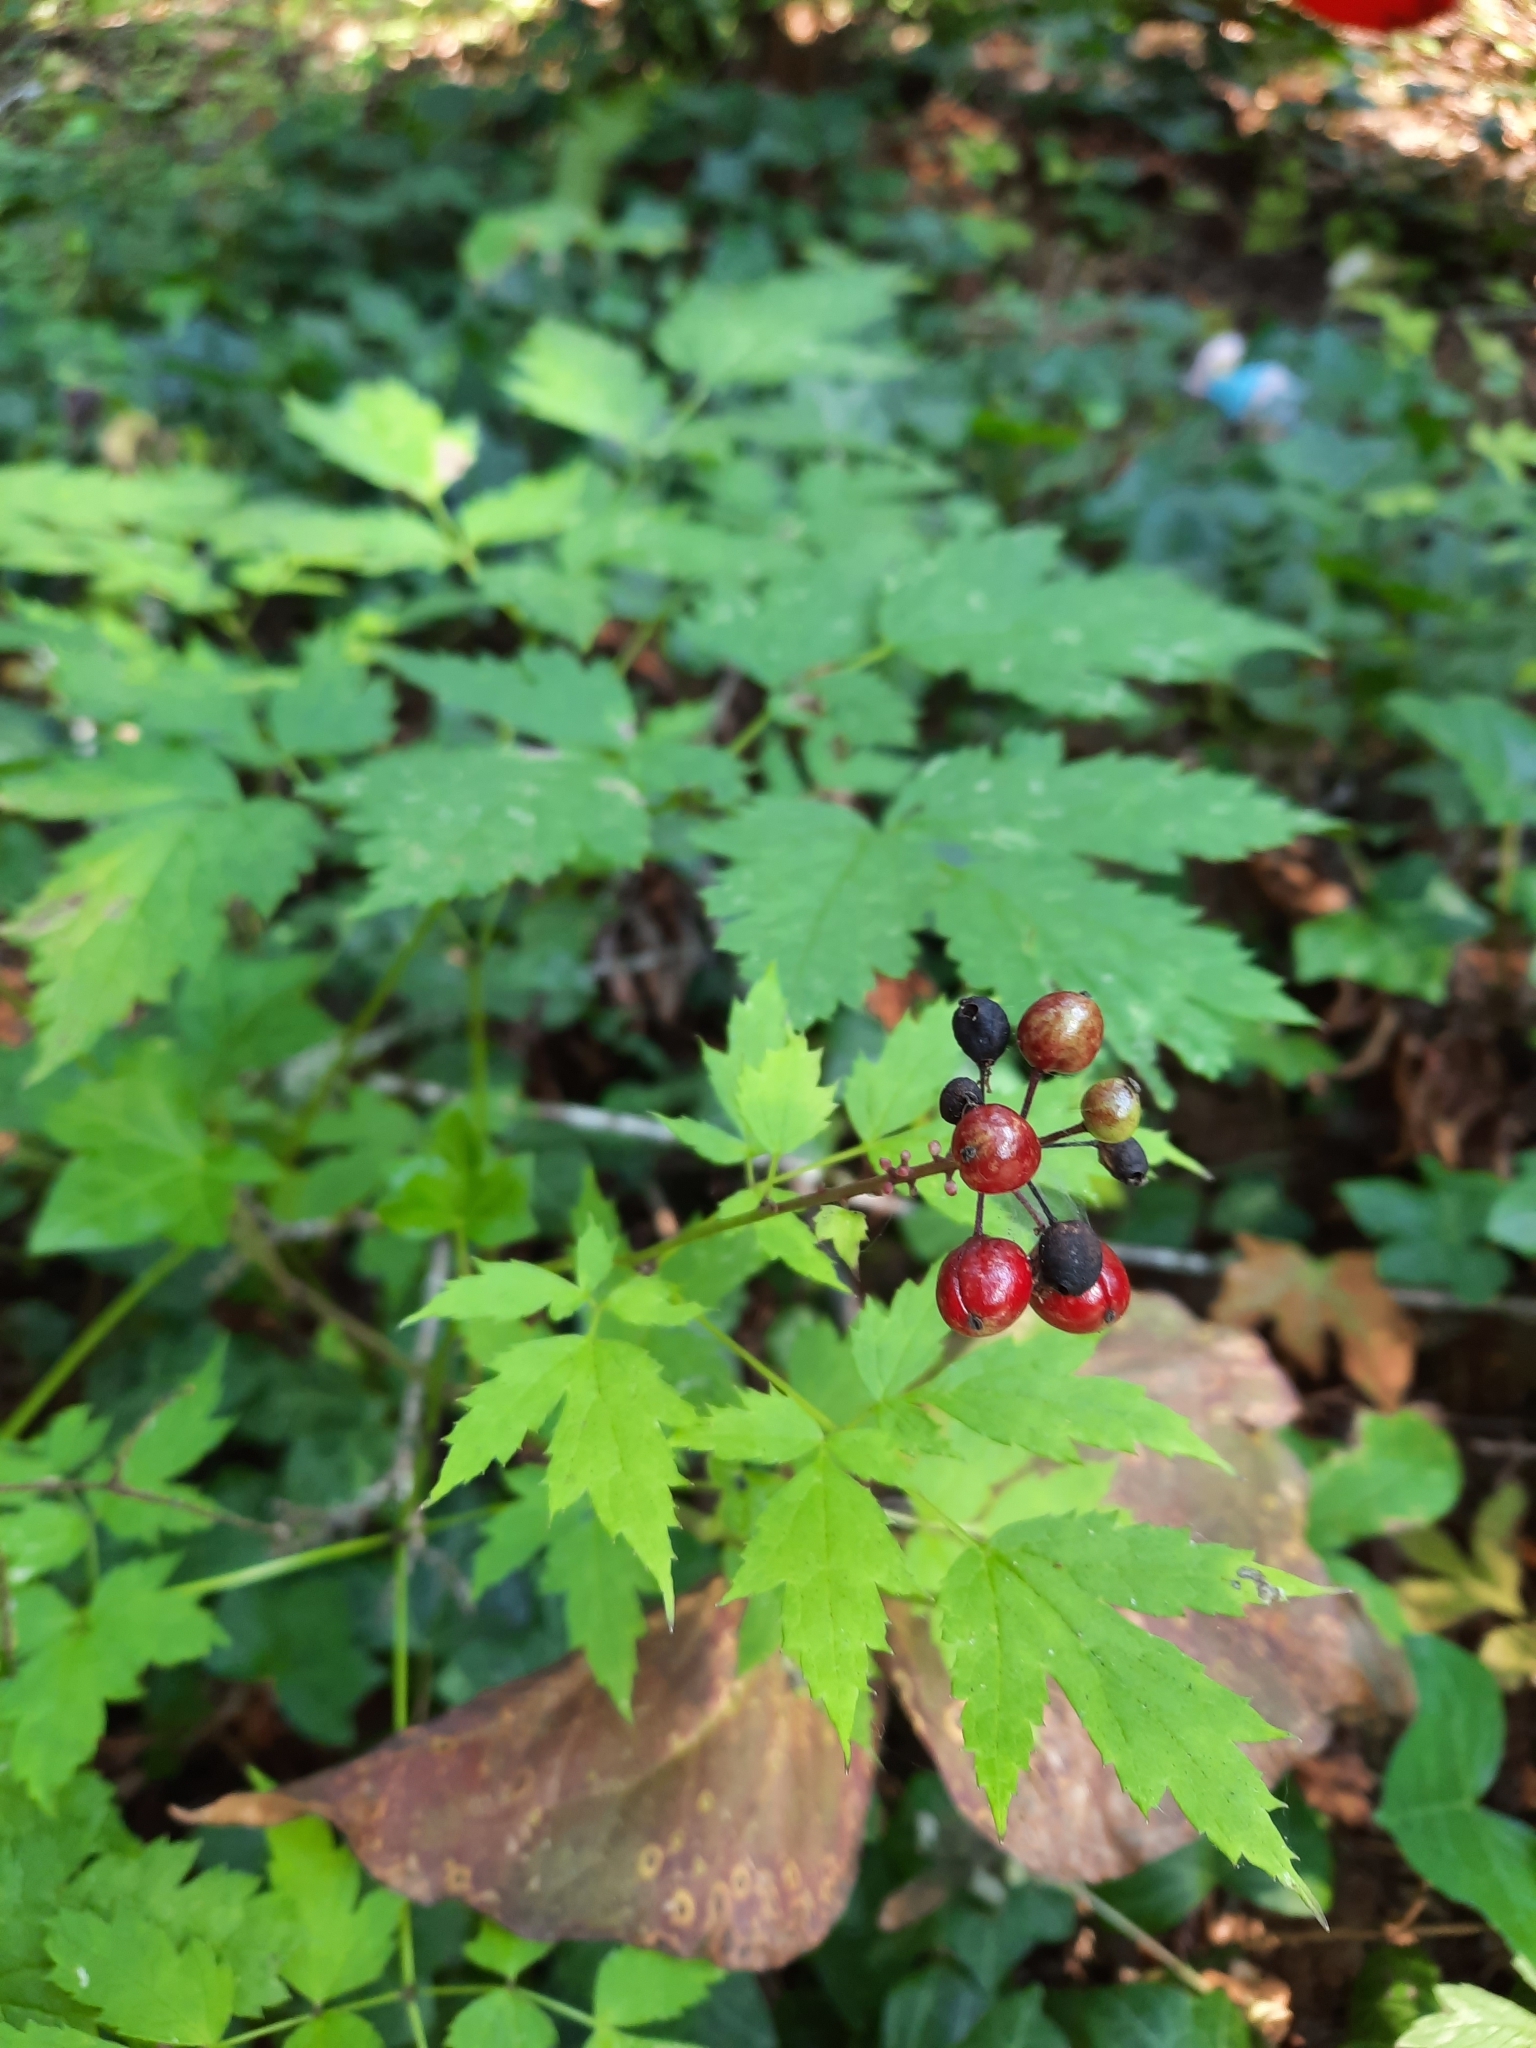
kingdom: Plantae
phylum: Tracheophyta
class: Magnoliopsida
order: Ranunculales
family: Ranunculaceae
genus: Actaea
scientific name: Actaea rubra
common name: Red baneberry
